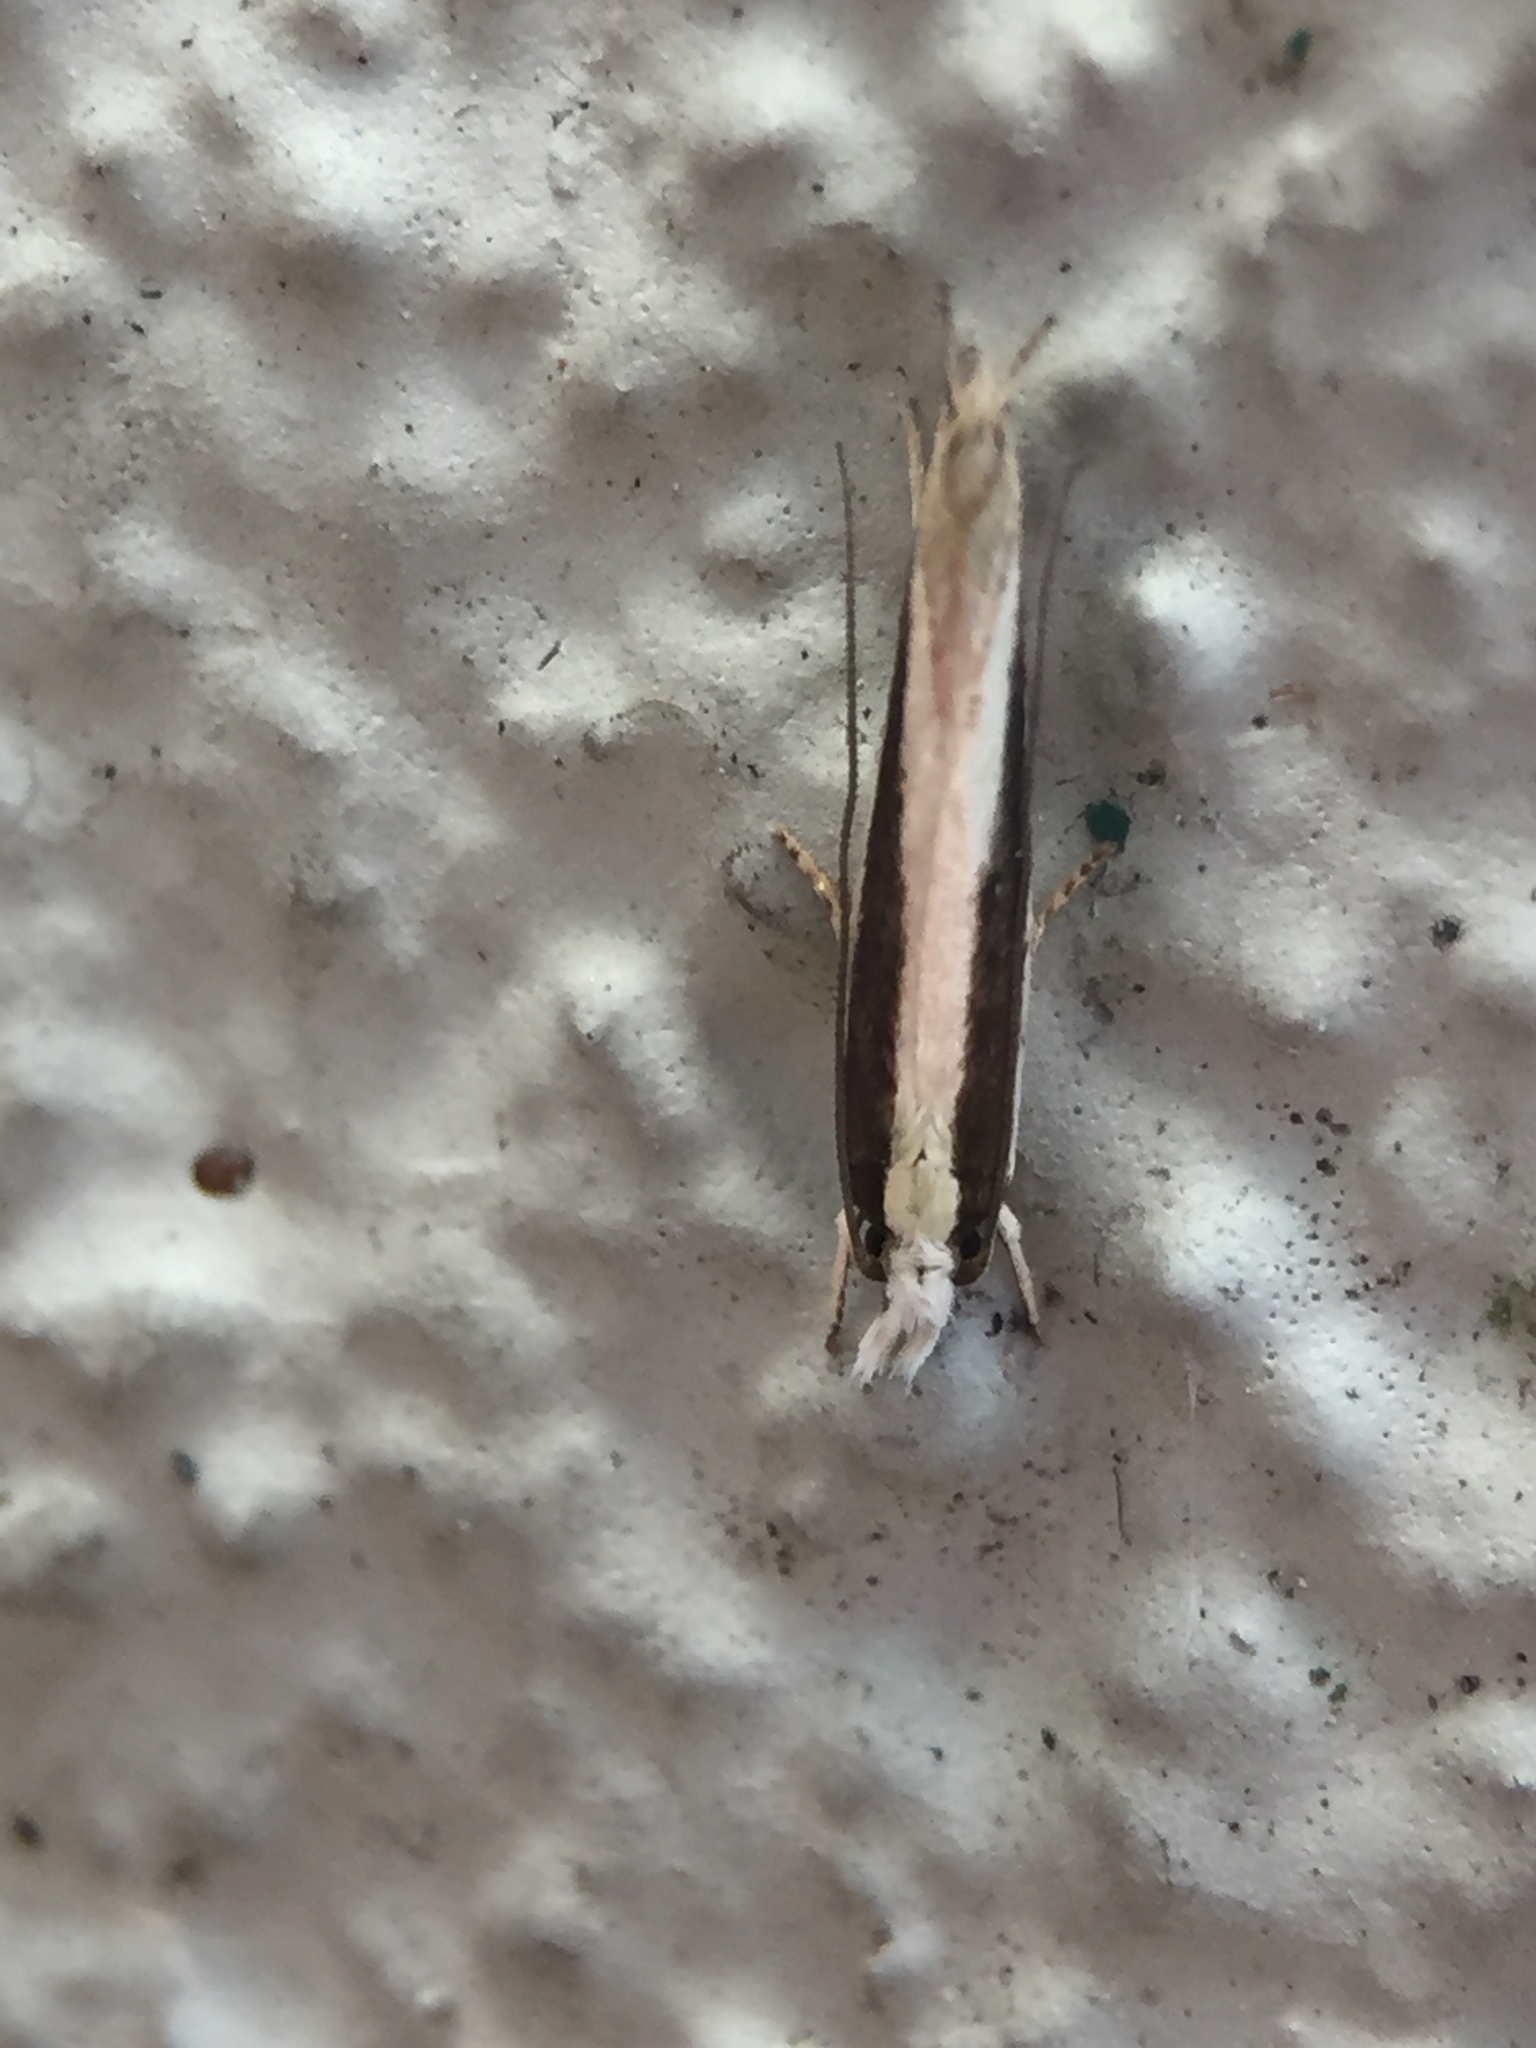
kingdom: Animalia
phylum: Arthropoda
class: Insecta
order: Lepidoptera
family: Tineidae
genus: Erechthias
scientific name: Erechthias stilbella
